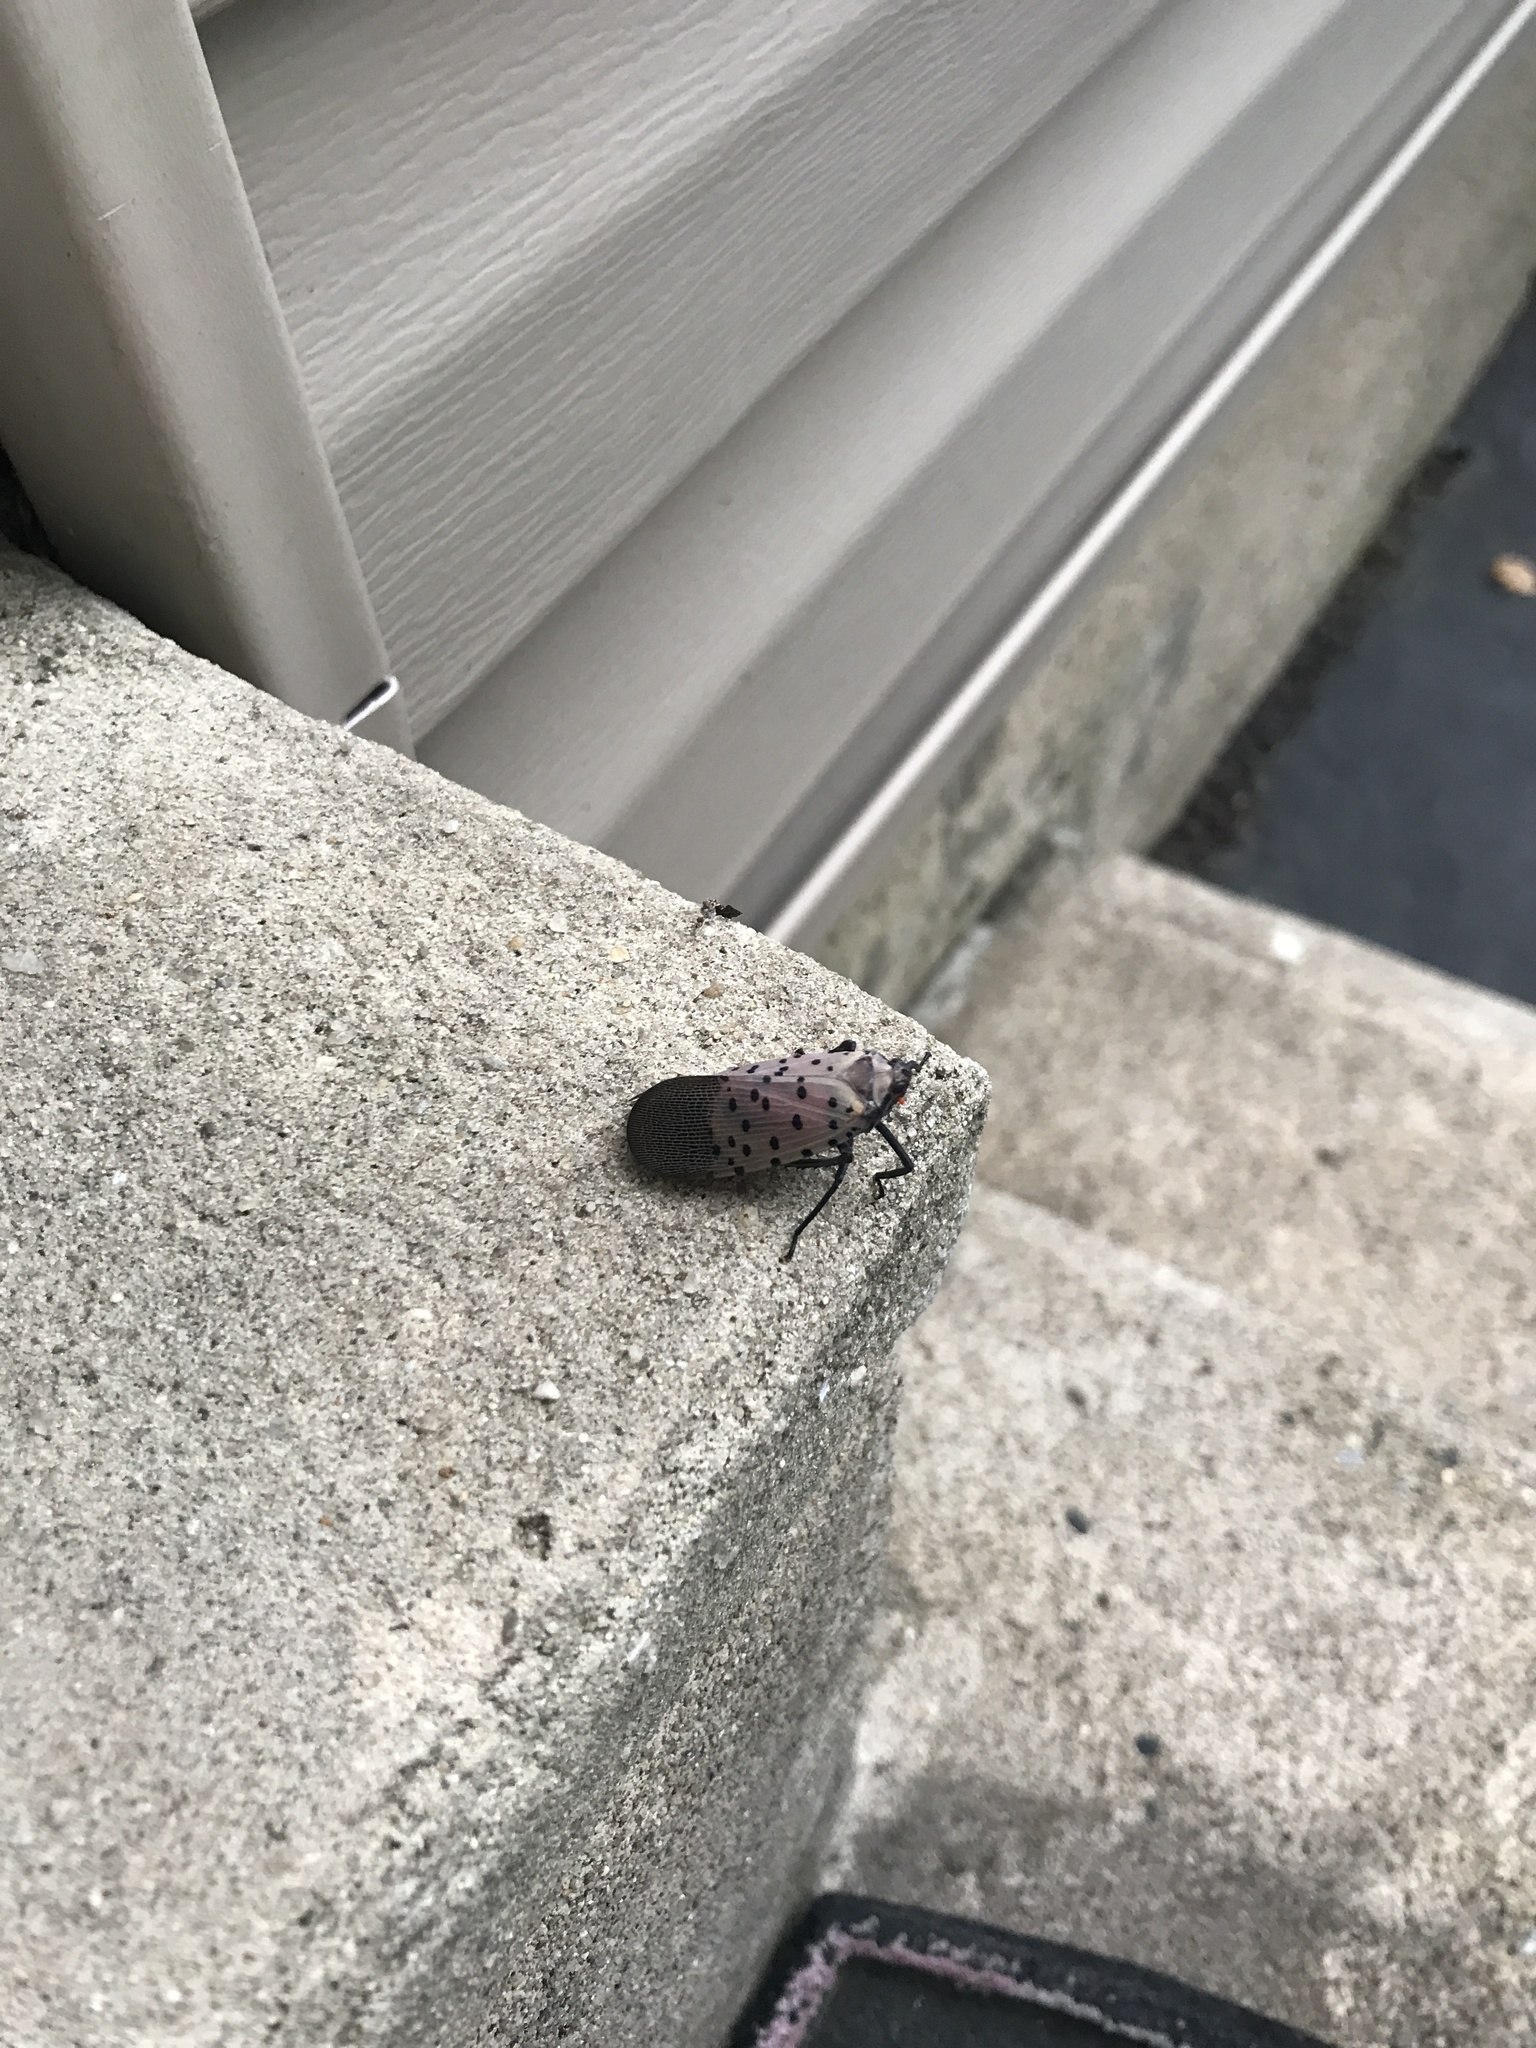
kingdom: Animalia
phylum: Arthropoda
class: Insecta
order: Hemiptera
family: Fulgoridae
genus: Lycorma
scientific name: Lycorma delicatula
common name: Spotted lanternfly
